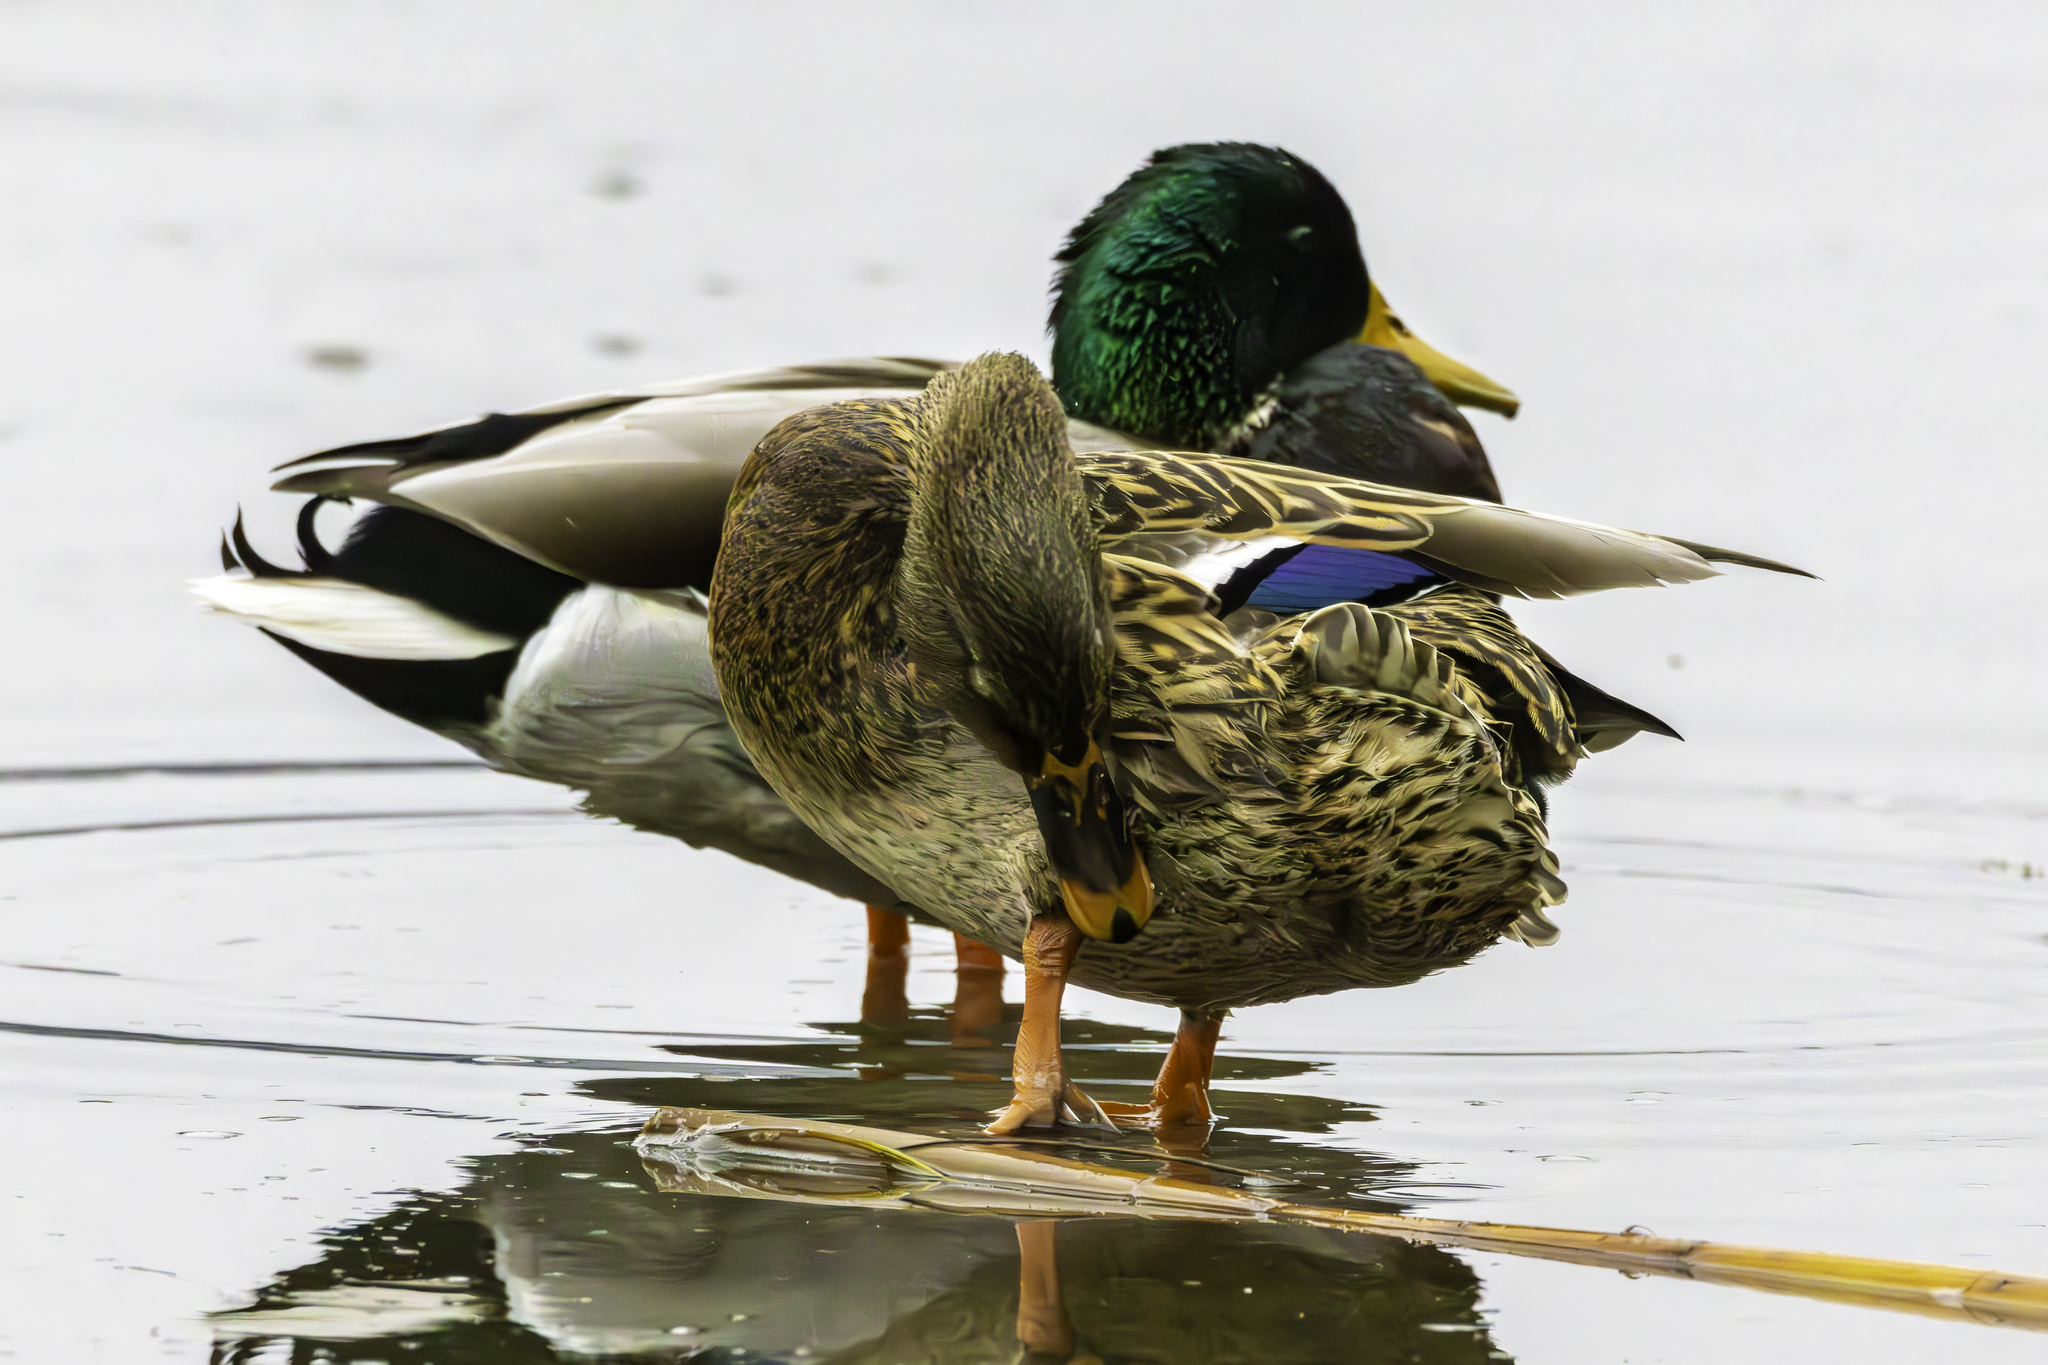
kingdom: Animalia
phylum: Chordata
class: Aves
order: Anseriformes
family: Anatidae
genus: Anas
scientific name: Anas platyrhynchos
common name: Mallard
